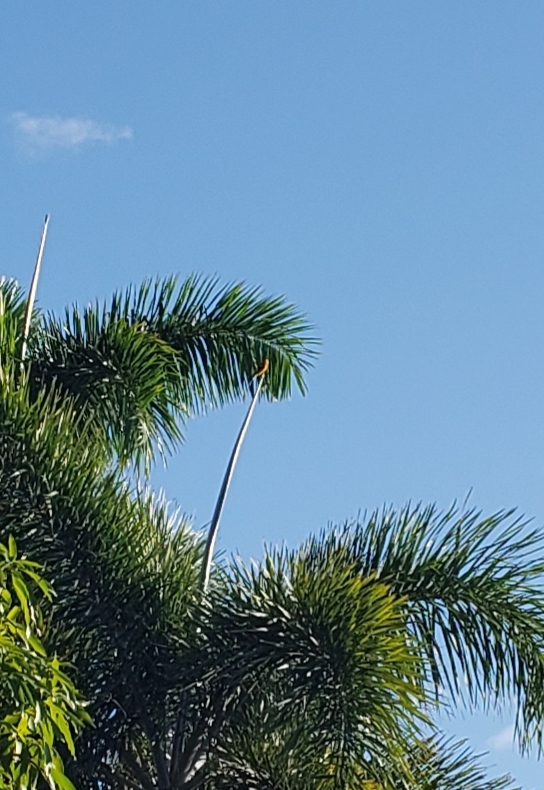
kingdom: Animalia
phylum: Chordata
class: Aves
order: Passeriformes
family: Icteridae
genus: Icterus
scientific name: Icterus pectoralis
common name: Spot-breasted oriole
